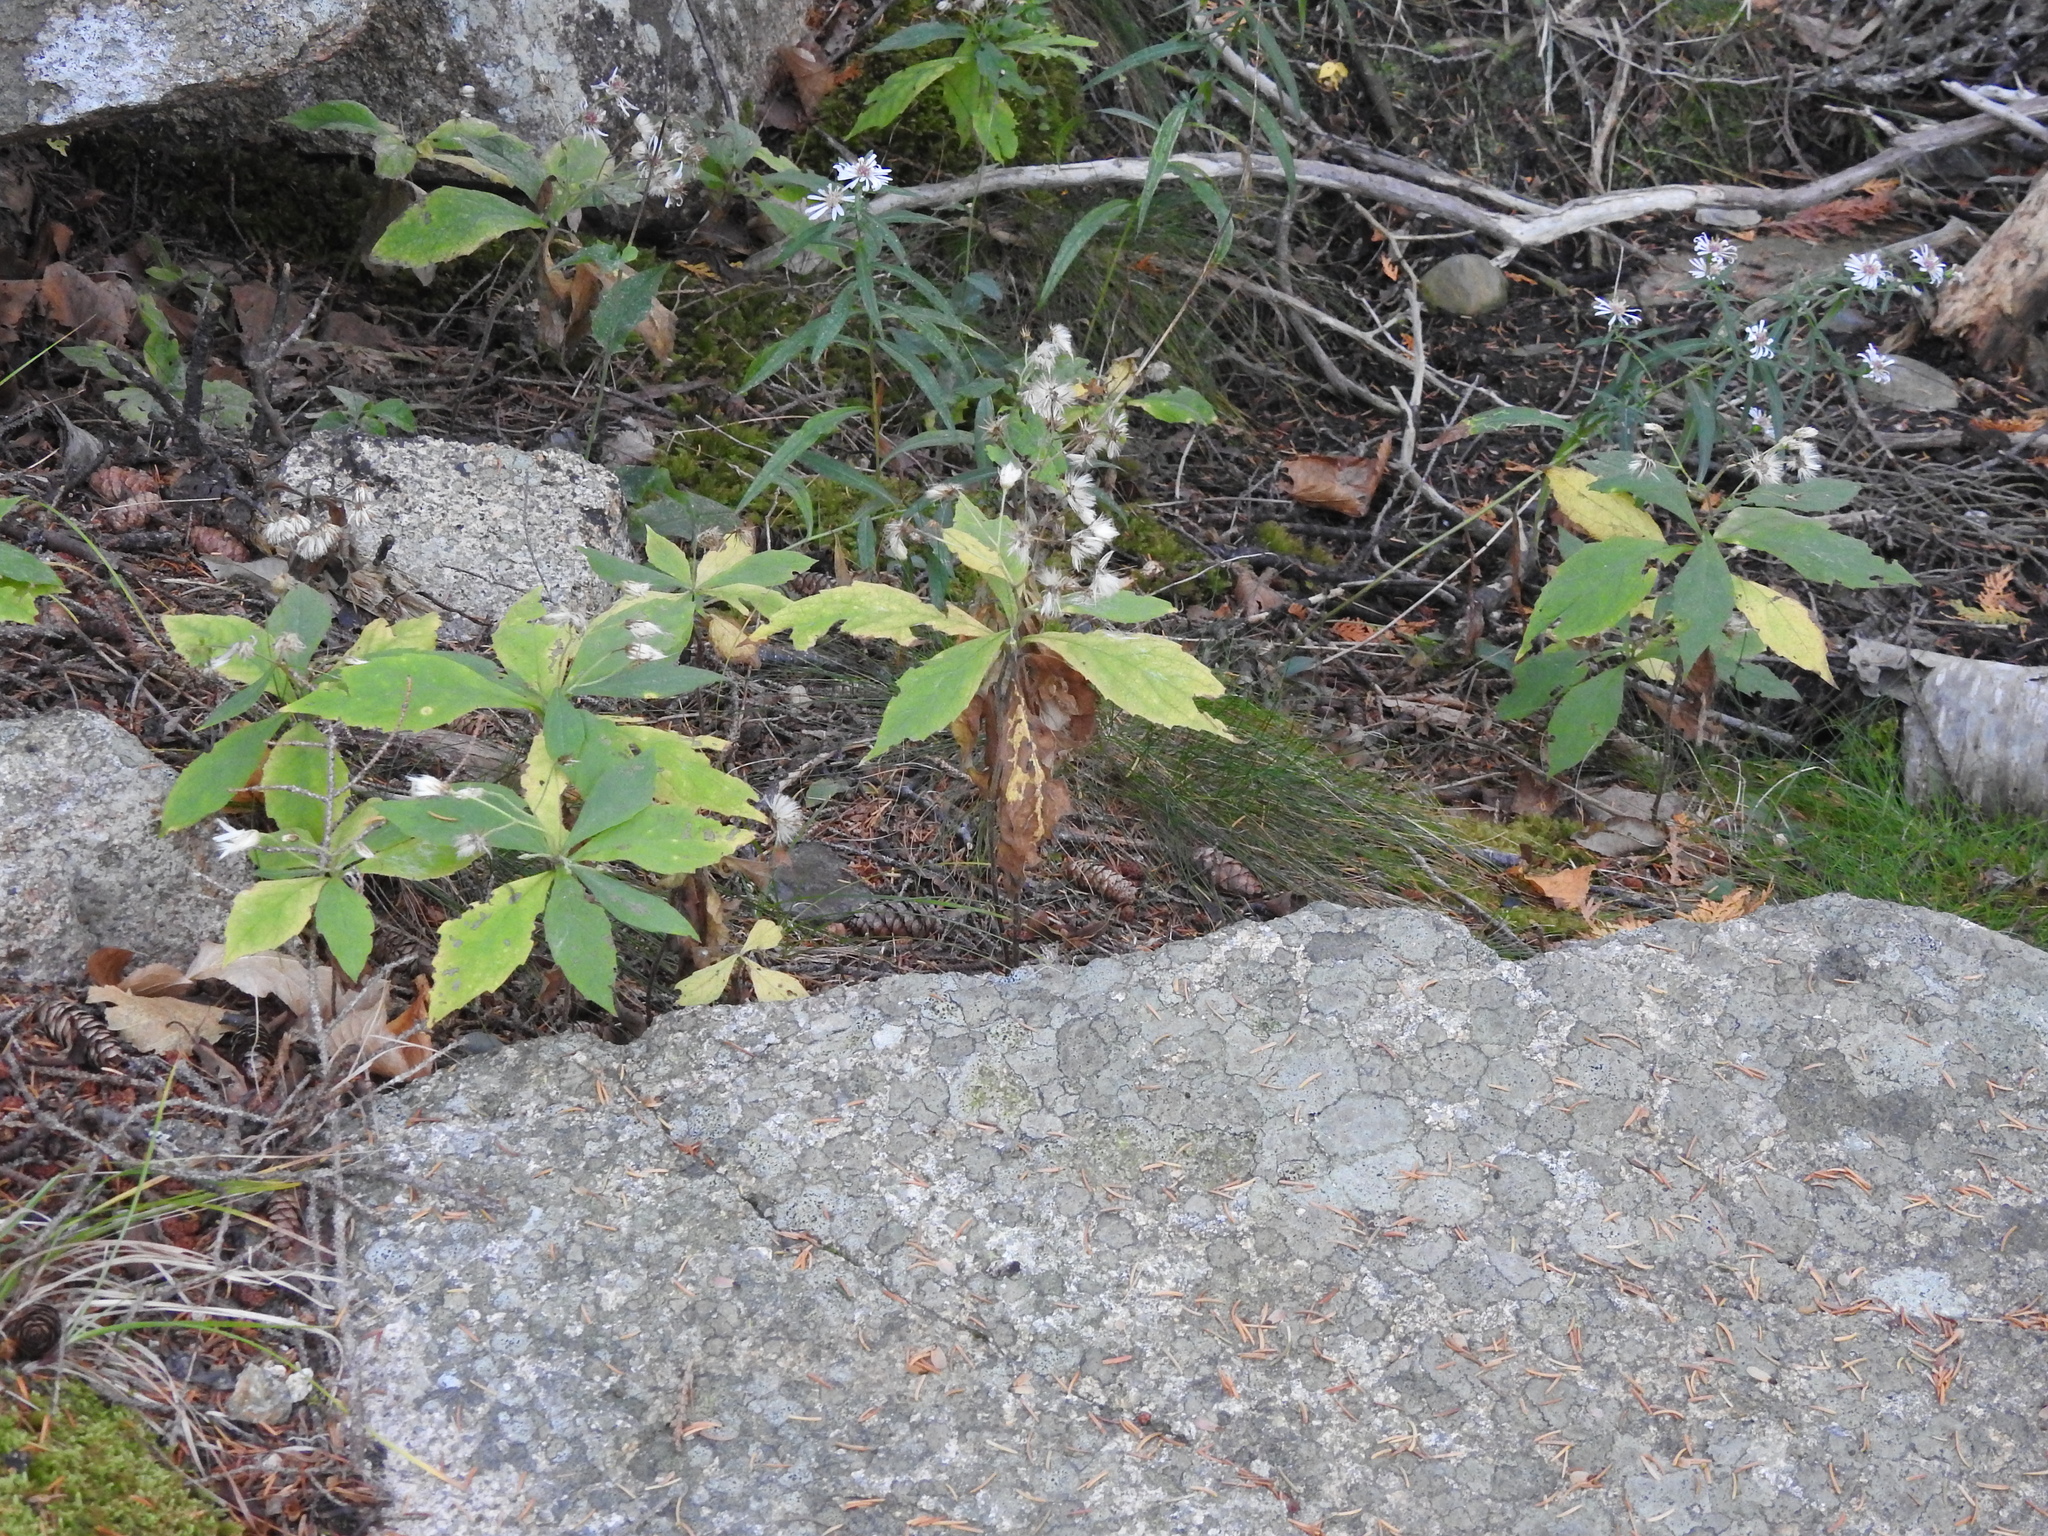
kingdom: Plantae
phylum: Tracheophyta
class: Magnoliopsida
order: Asterales
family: Asteraceae
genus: Oclemena
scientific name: Oclemena acuminata
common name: Mountain aster
